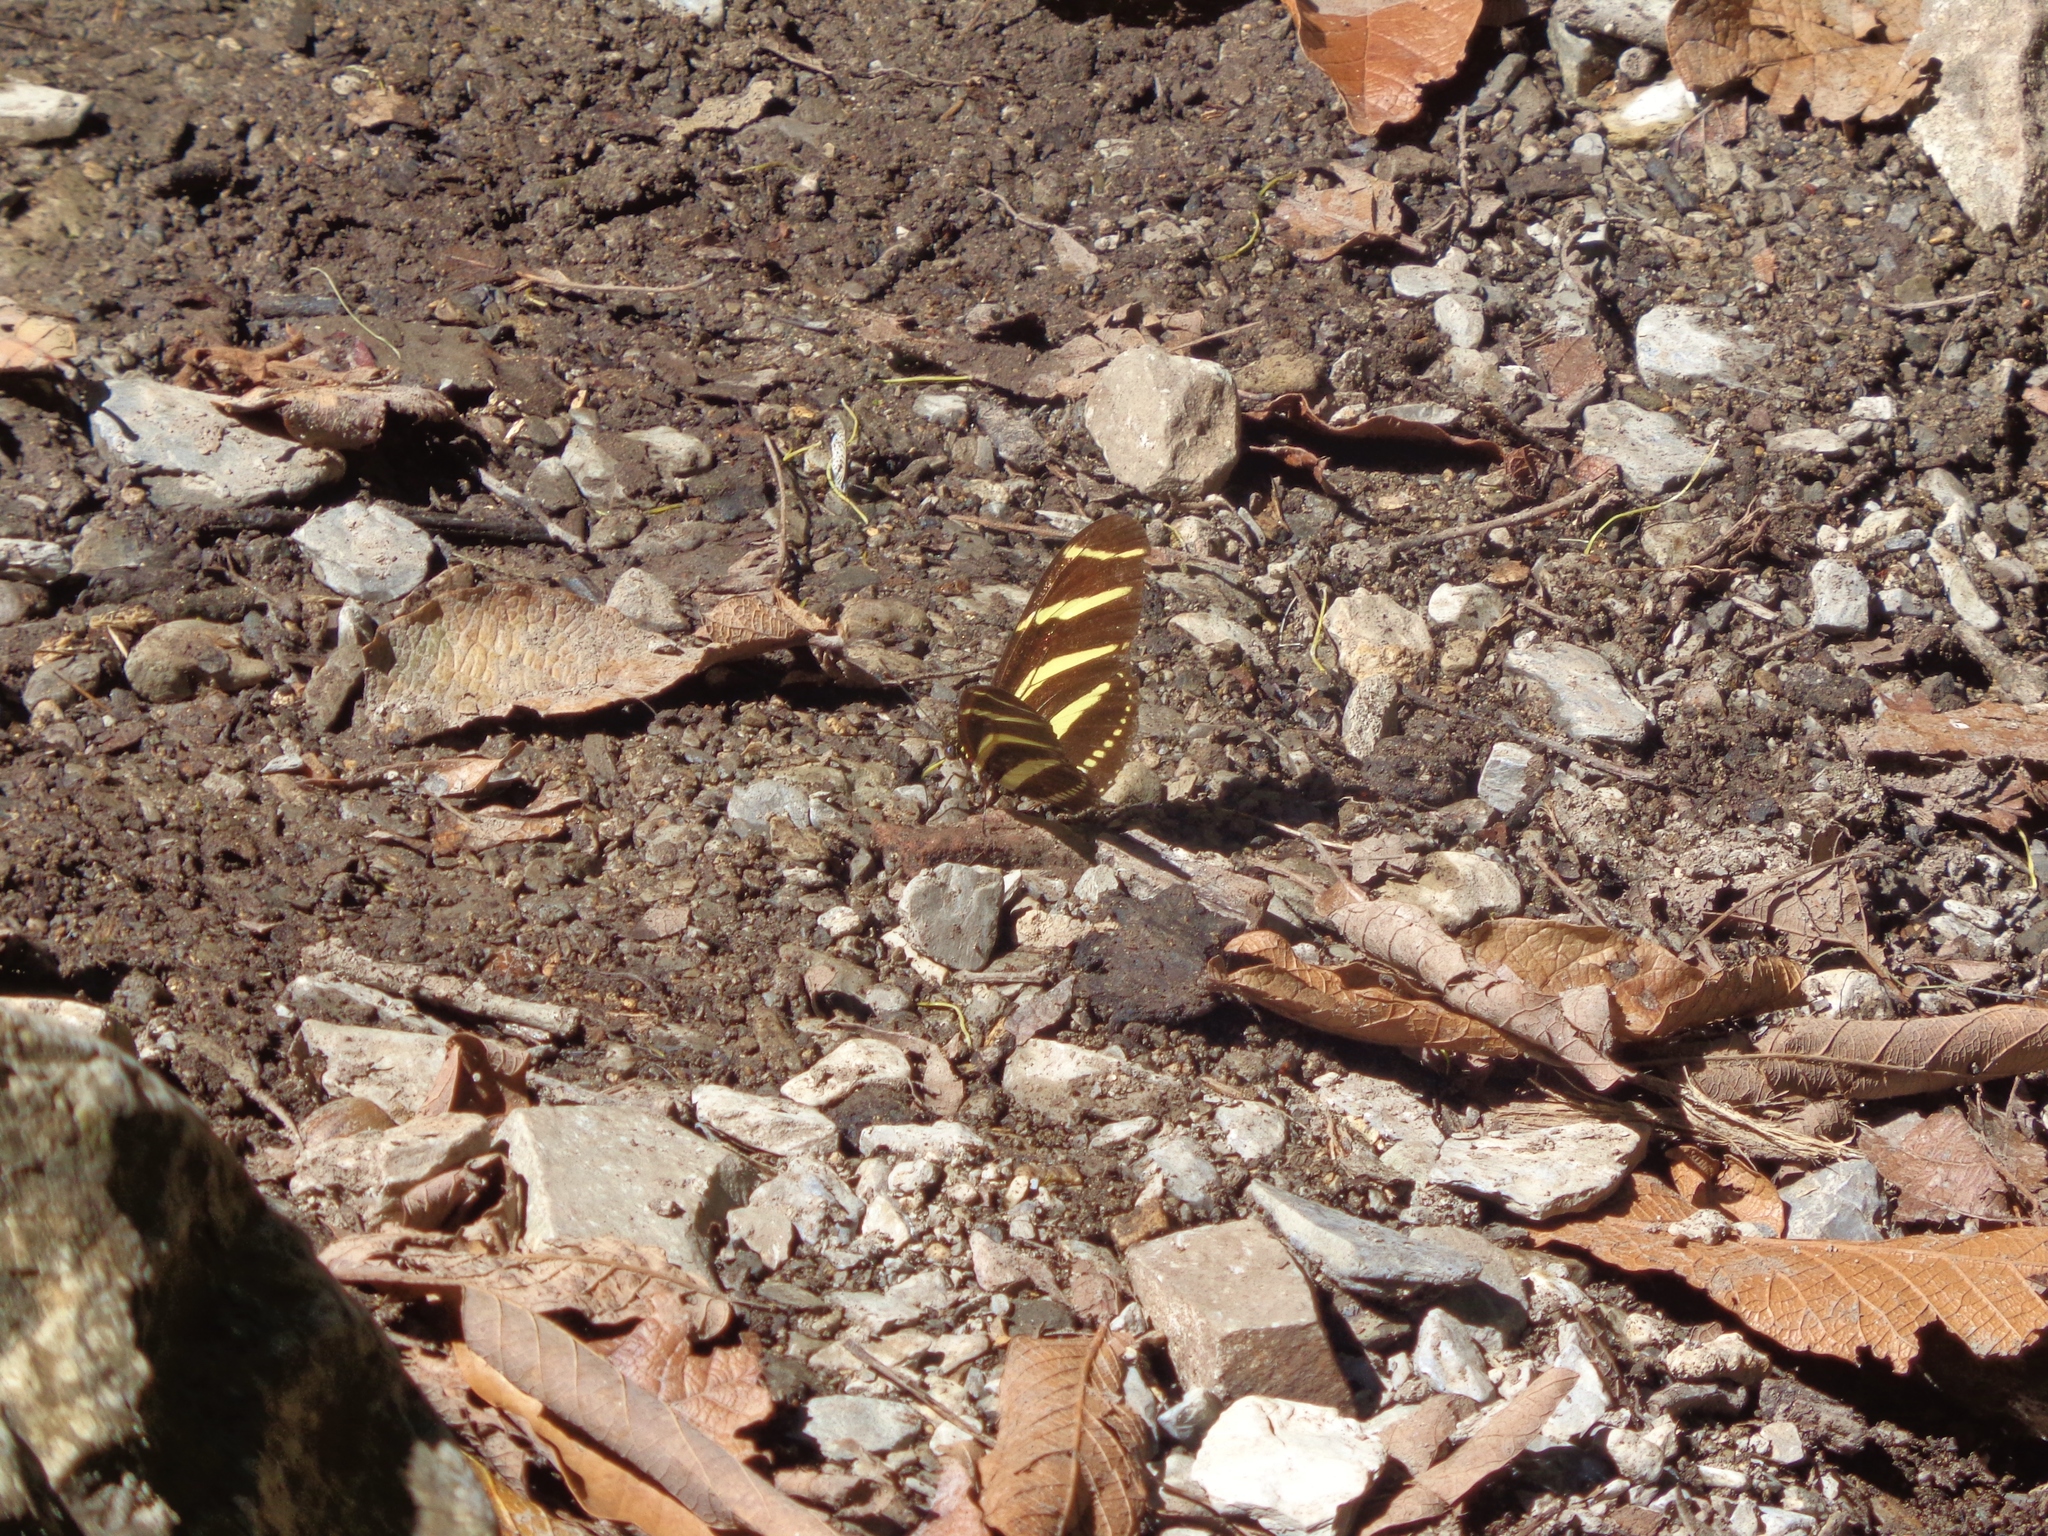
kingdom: Animalia
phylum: Arthropoda
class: Insecta
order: Lepidoptera
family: Nymphalidae
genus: Heliconius
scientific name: Heliconius charithonia
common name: Zebra long wing
